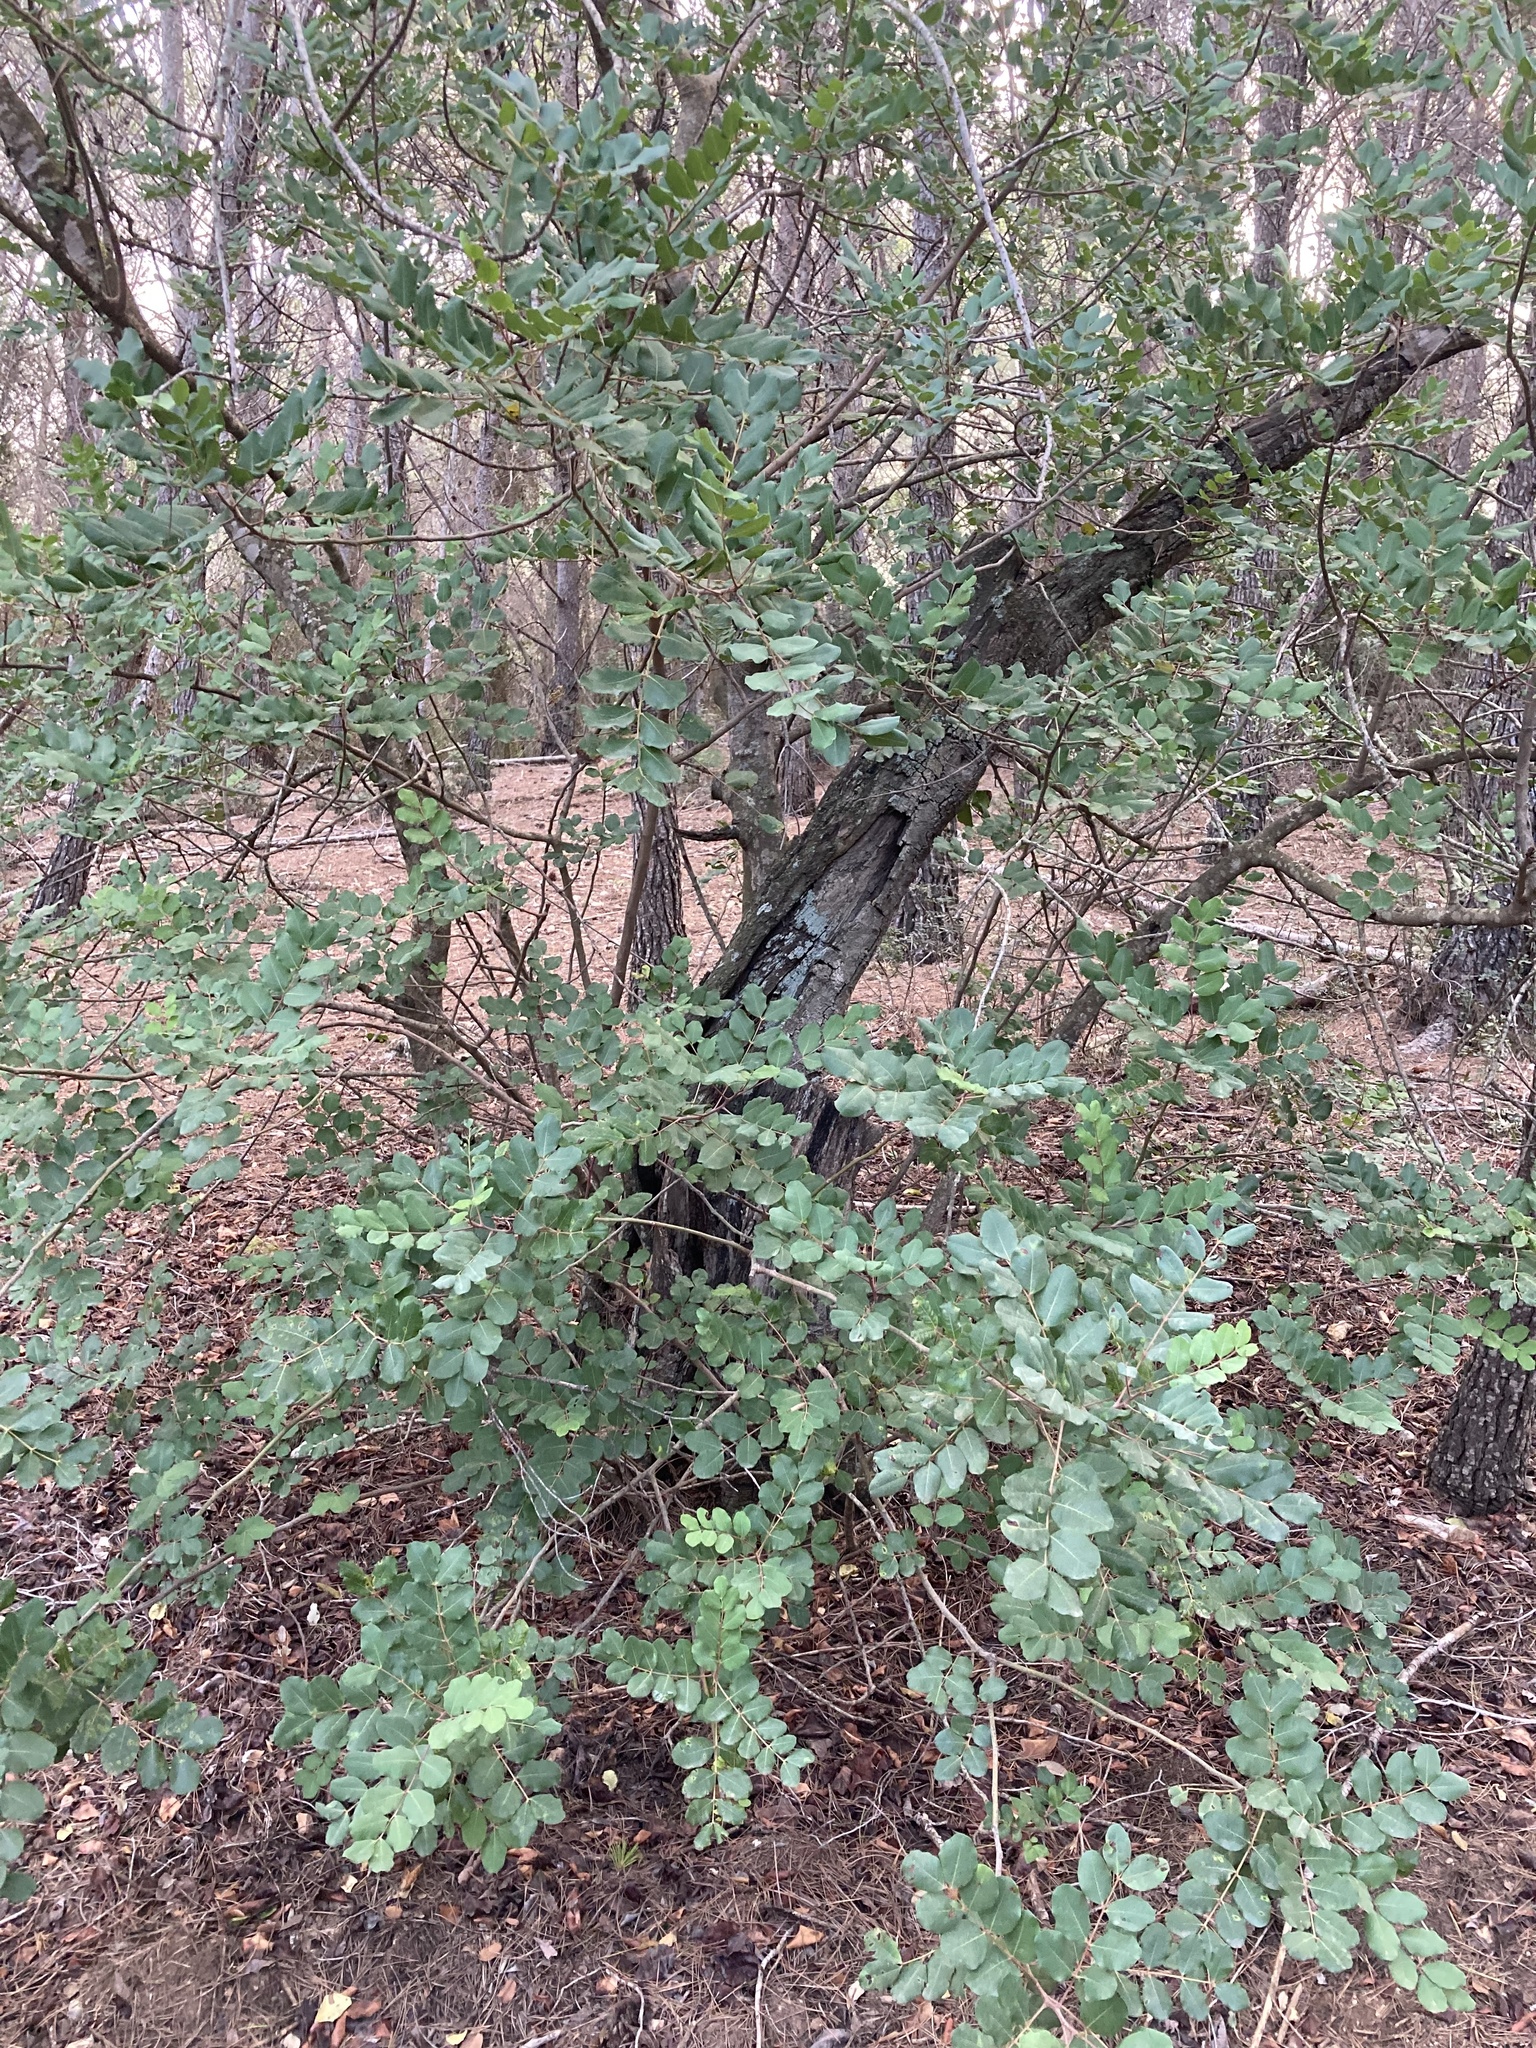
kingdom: Plantae
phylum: Tracheophyta
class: Magnoliopsida
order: Fabales
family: Fabaceae
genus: Ceratonia
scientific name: Ceratonia siliqua
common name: Carob
